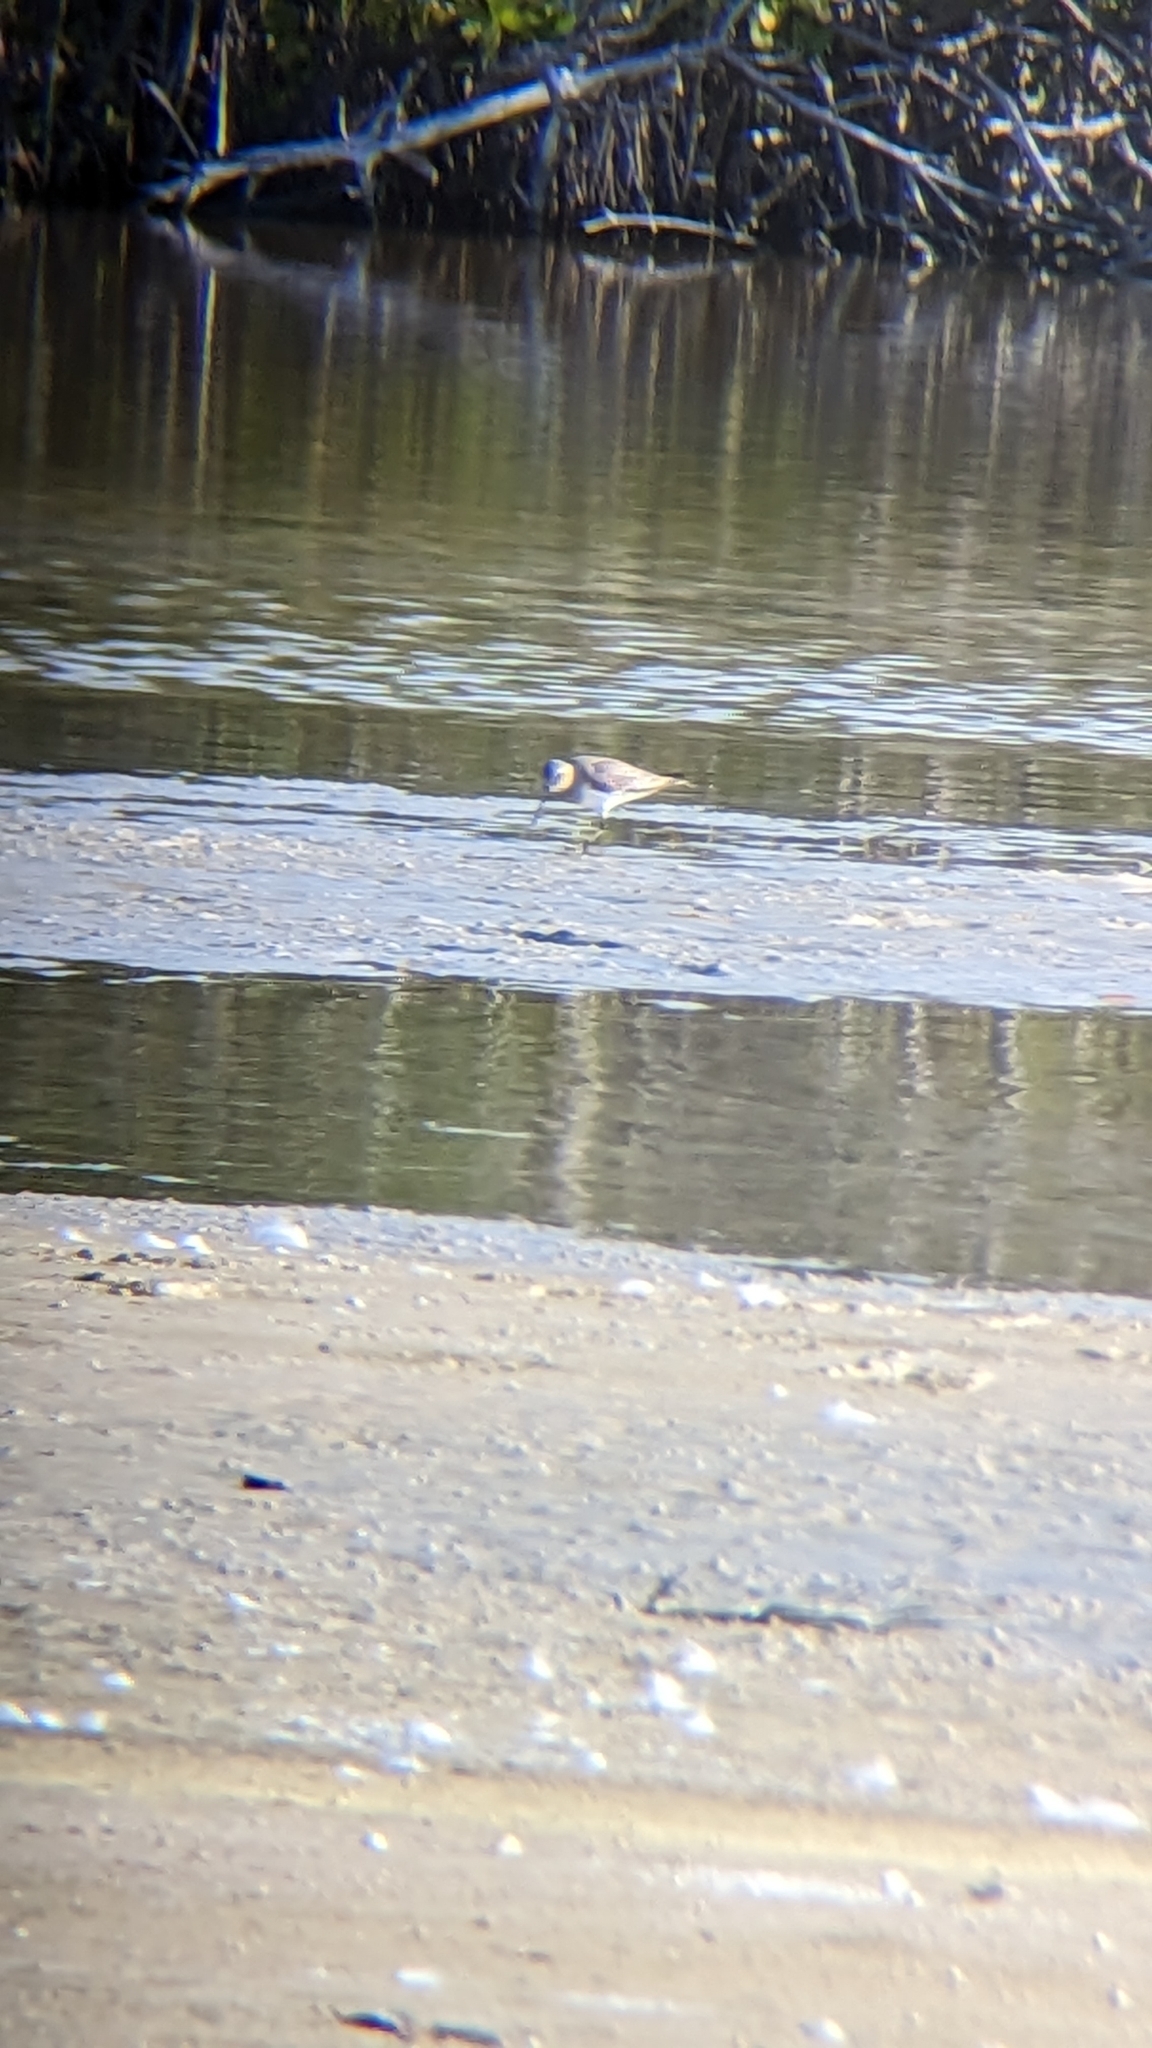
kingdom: Animalia
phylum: Chordata
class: Aves
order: Charadriiformes
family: Scolopacidae
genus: Calidris
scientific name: Calidris alpina
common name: Dunlin
